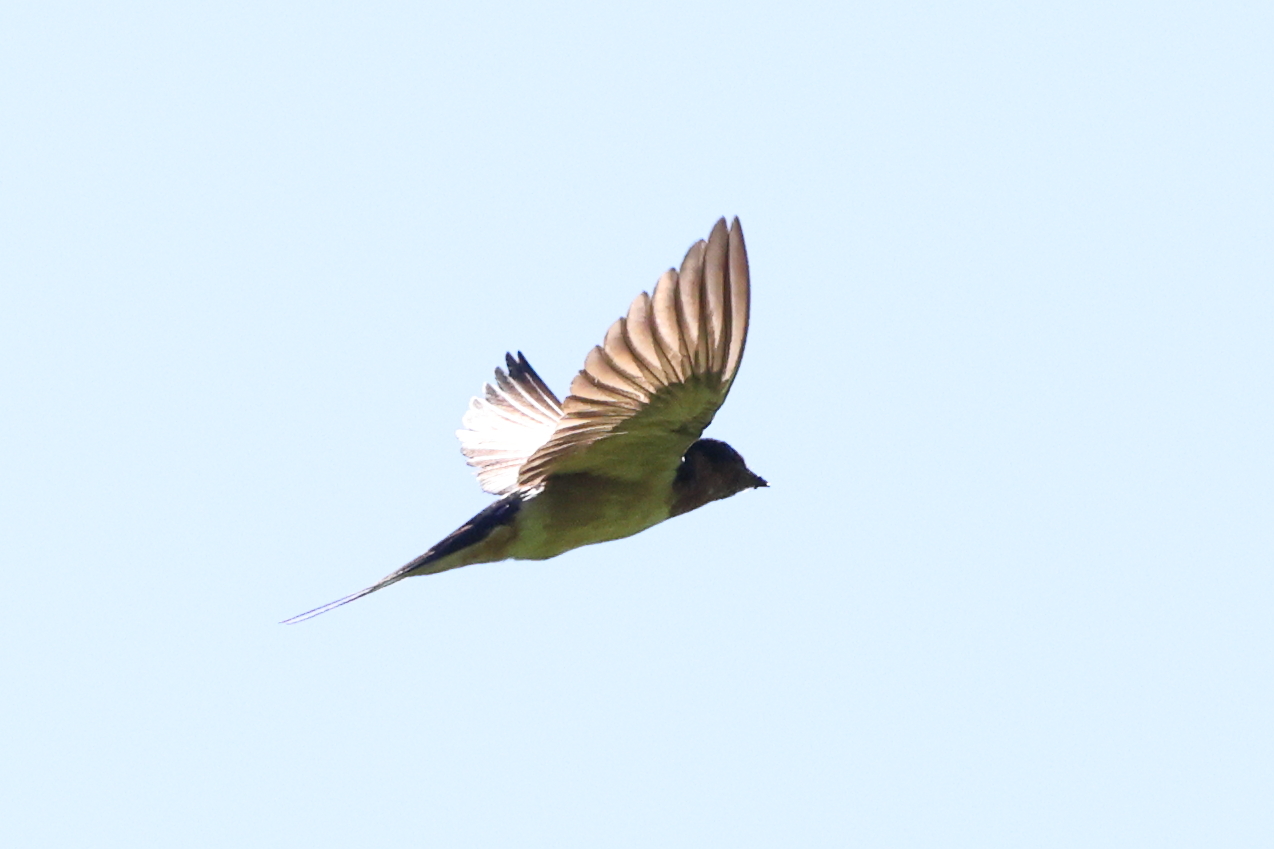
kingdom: Animalia
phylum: Chordata
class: Aves
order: Passeriformes
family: Hirundinidae
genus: Hirundo
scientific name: Hirundo rustica
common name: Barn swallow
